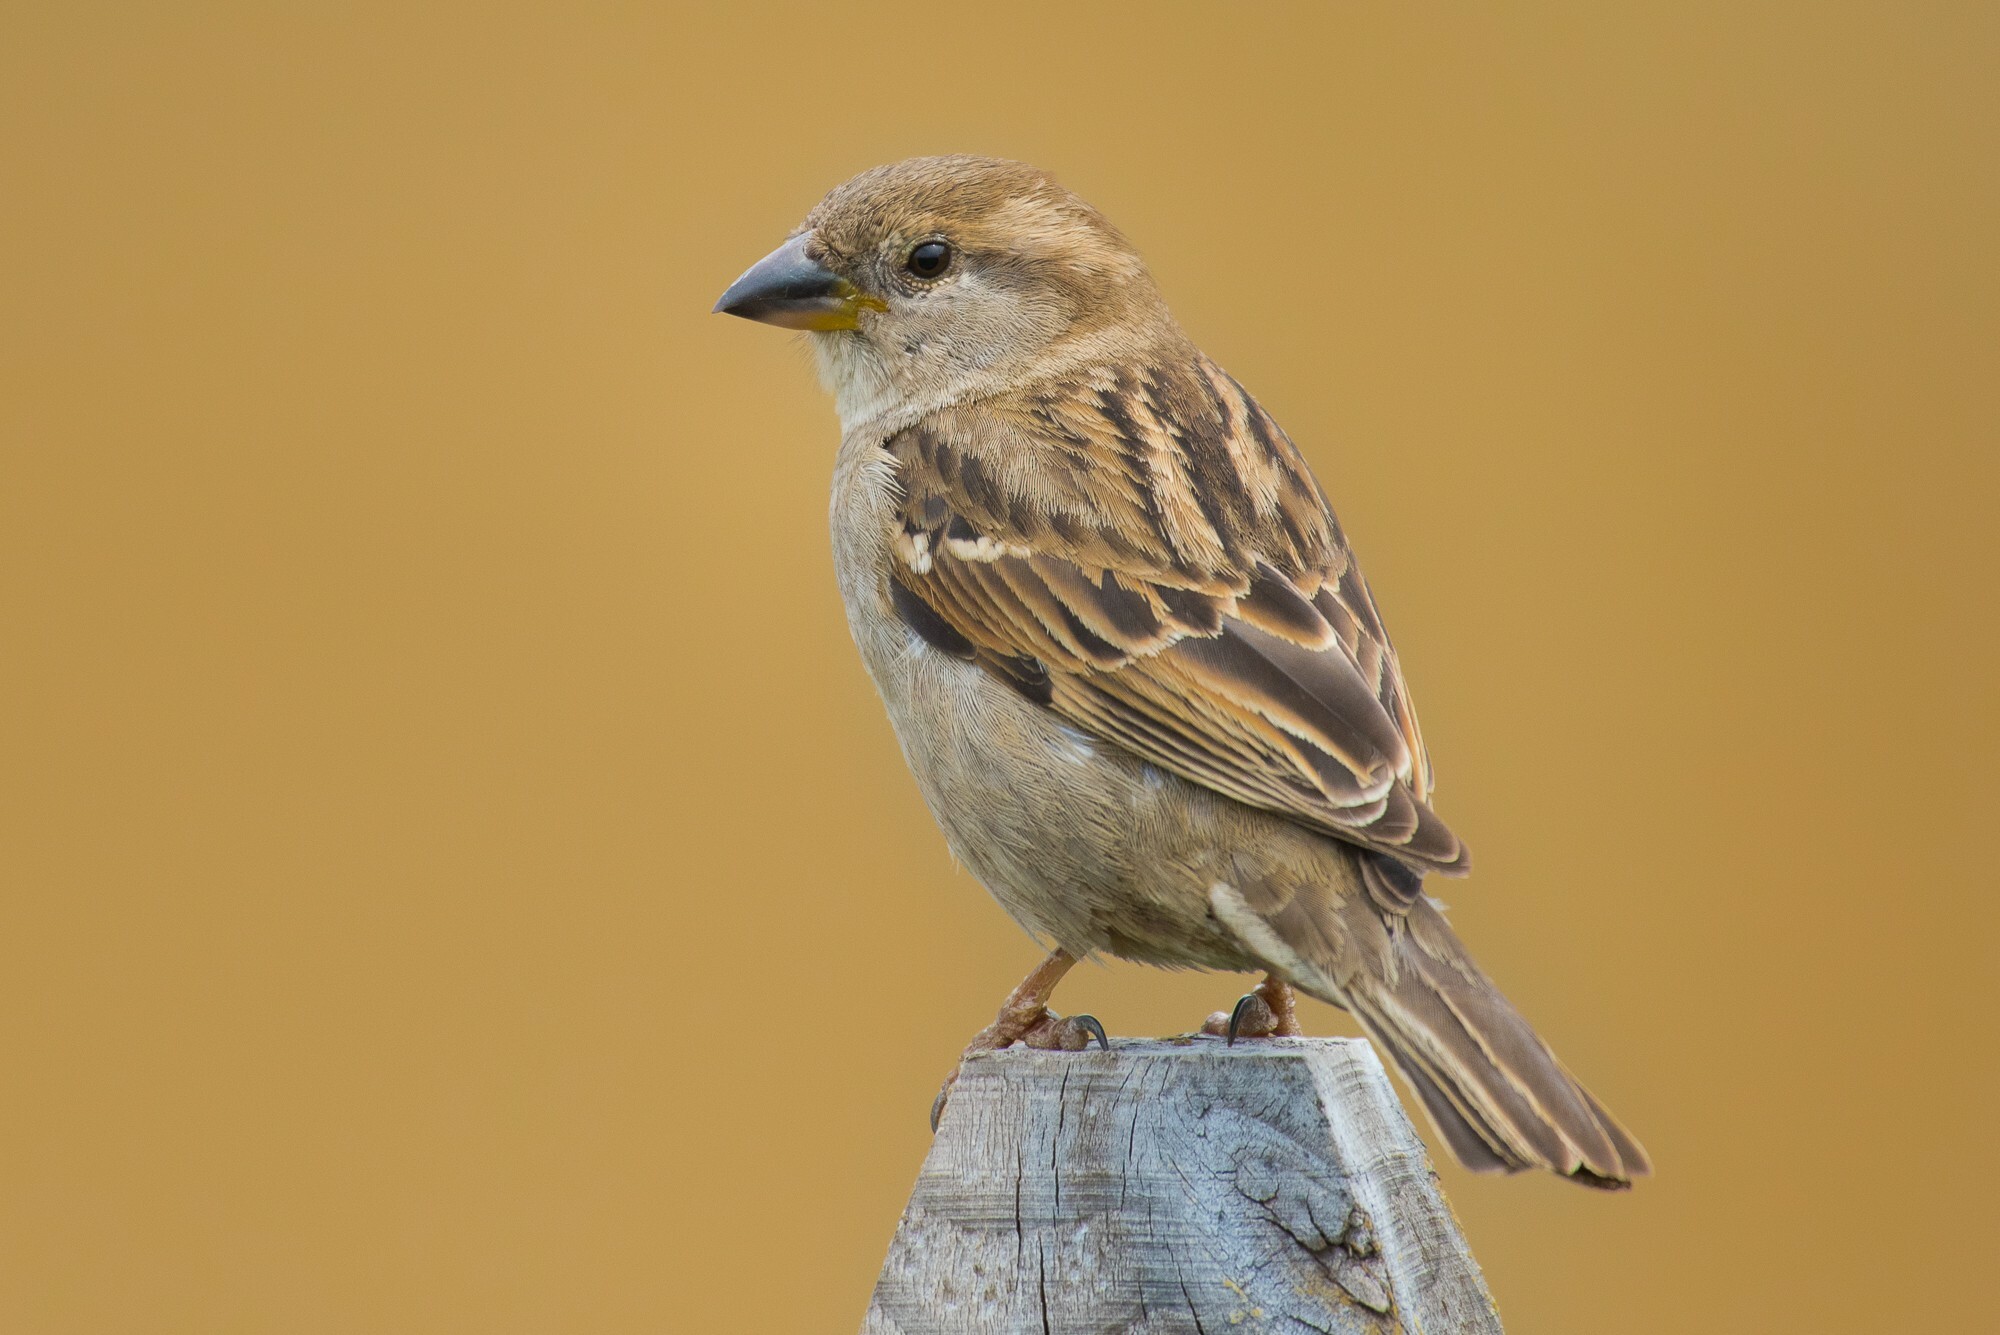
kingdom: Animalia
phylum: Chordata
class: Aves
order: Passeriformes
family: Passeridae
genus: Passer
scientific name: Passer domesticus
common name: House sparrow
